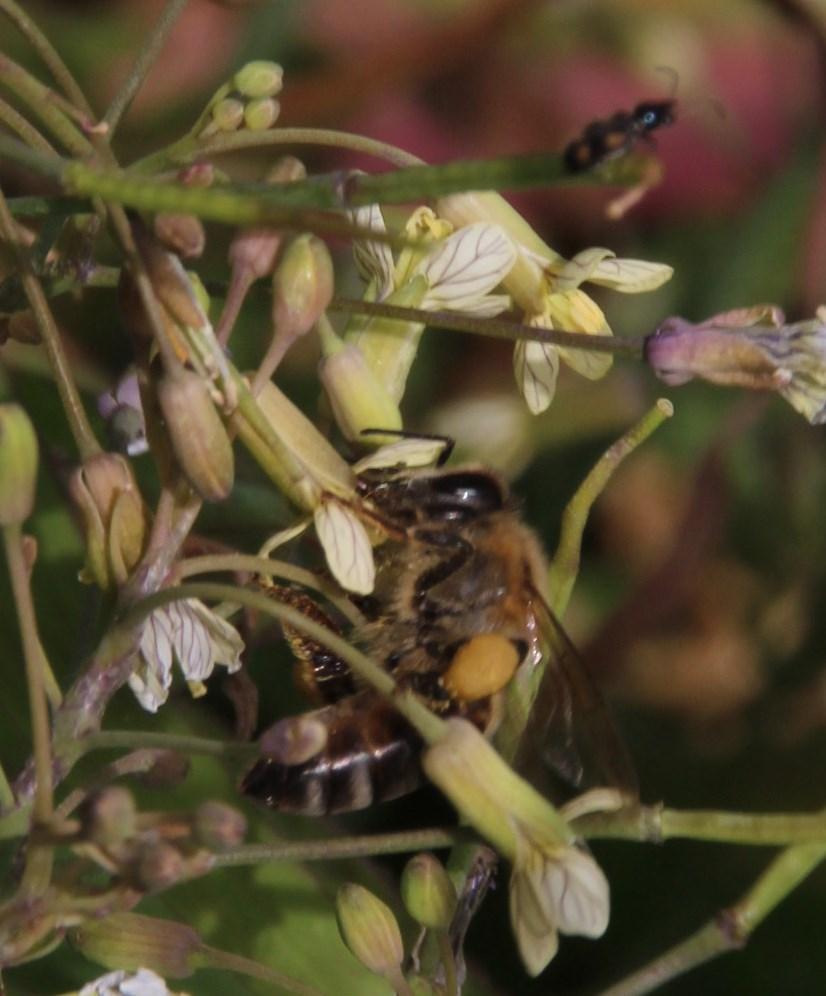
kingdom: Animalia
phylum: Arthropoda
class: Insecta
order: Hymenoptera
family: Apidae
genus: Apis
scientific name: Apis mellifera
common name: Honey bee
